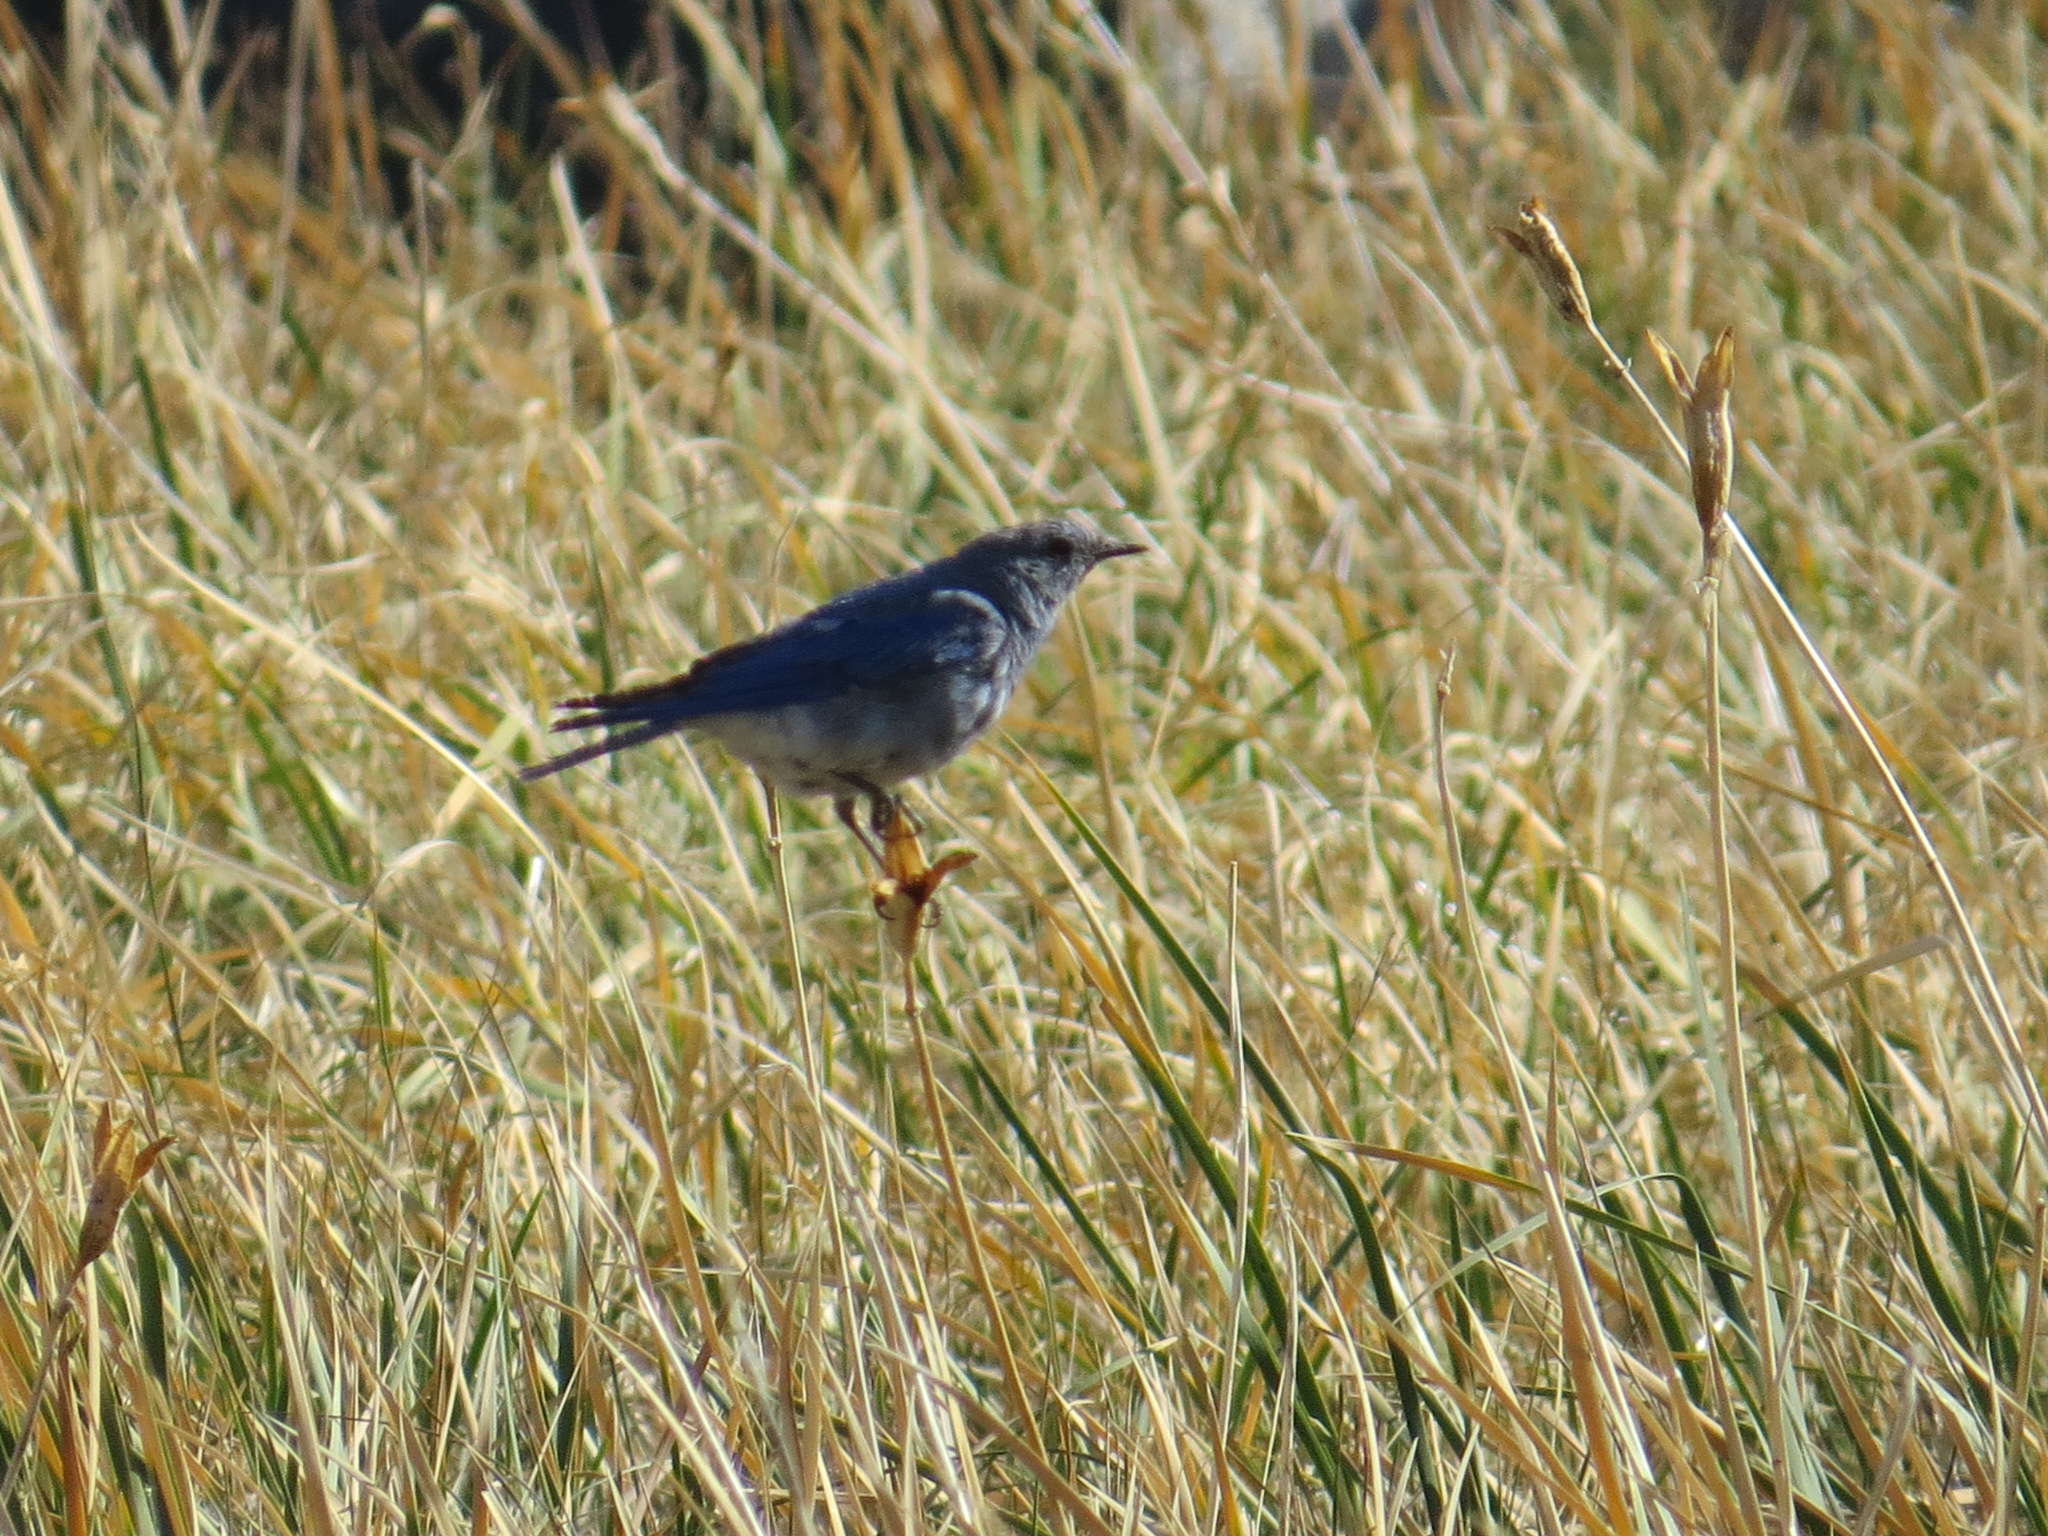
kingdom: Animalia
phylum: Chordata
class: Aves
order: Passeriformes
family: Turdidae
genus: Sialia
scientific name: Sialia currucoides
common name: Mountain bluebird
